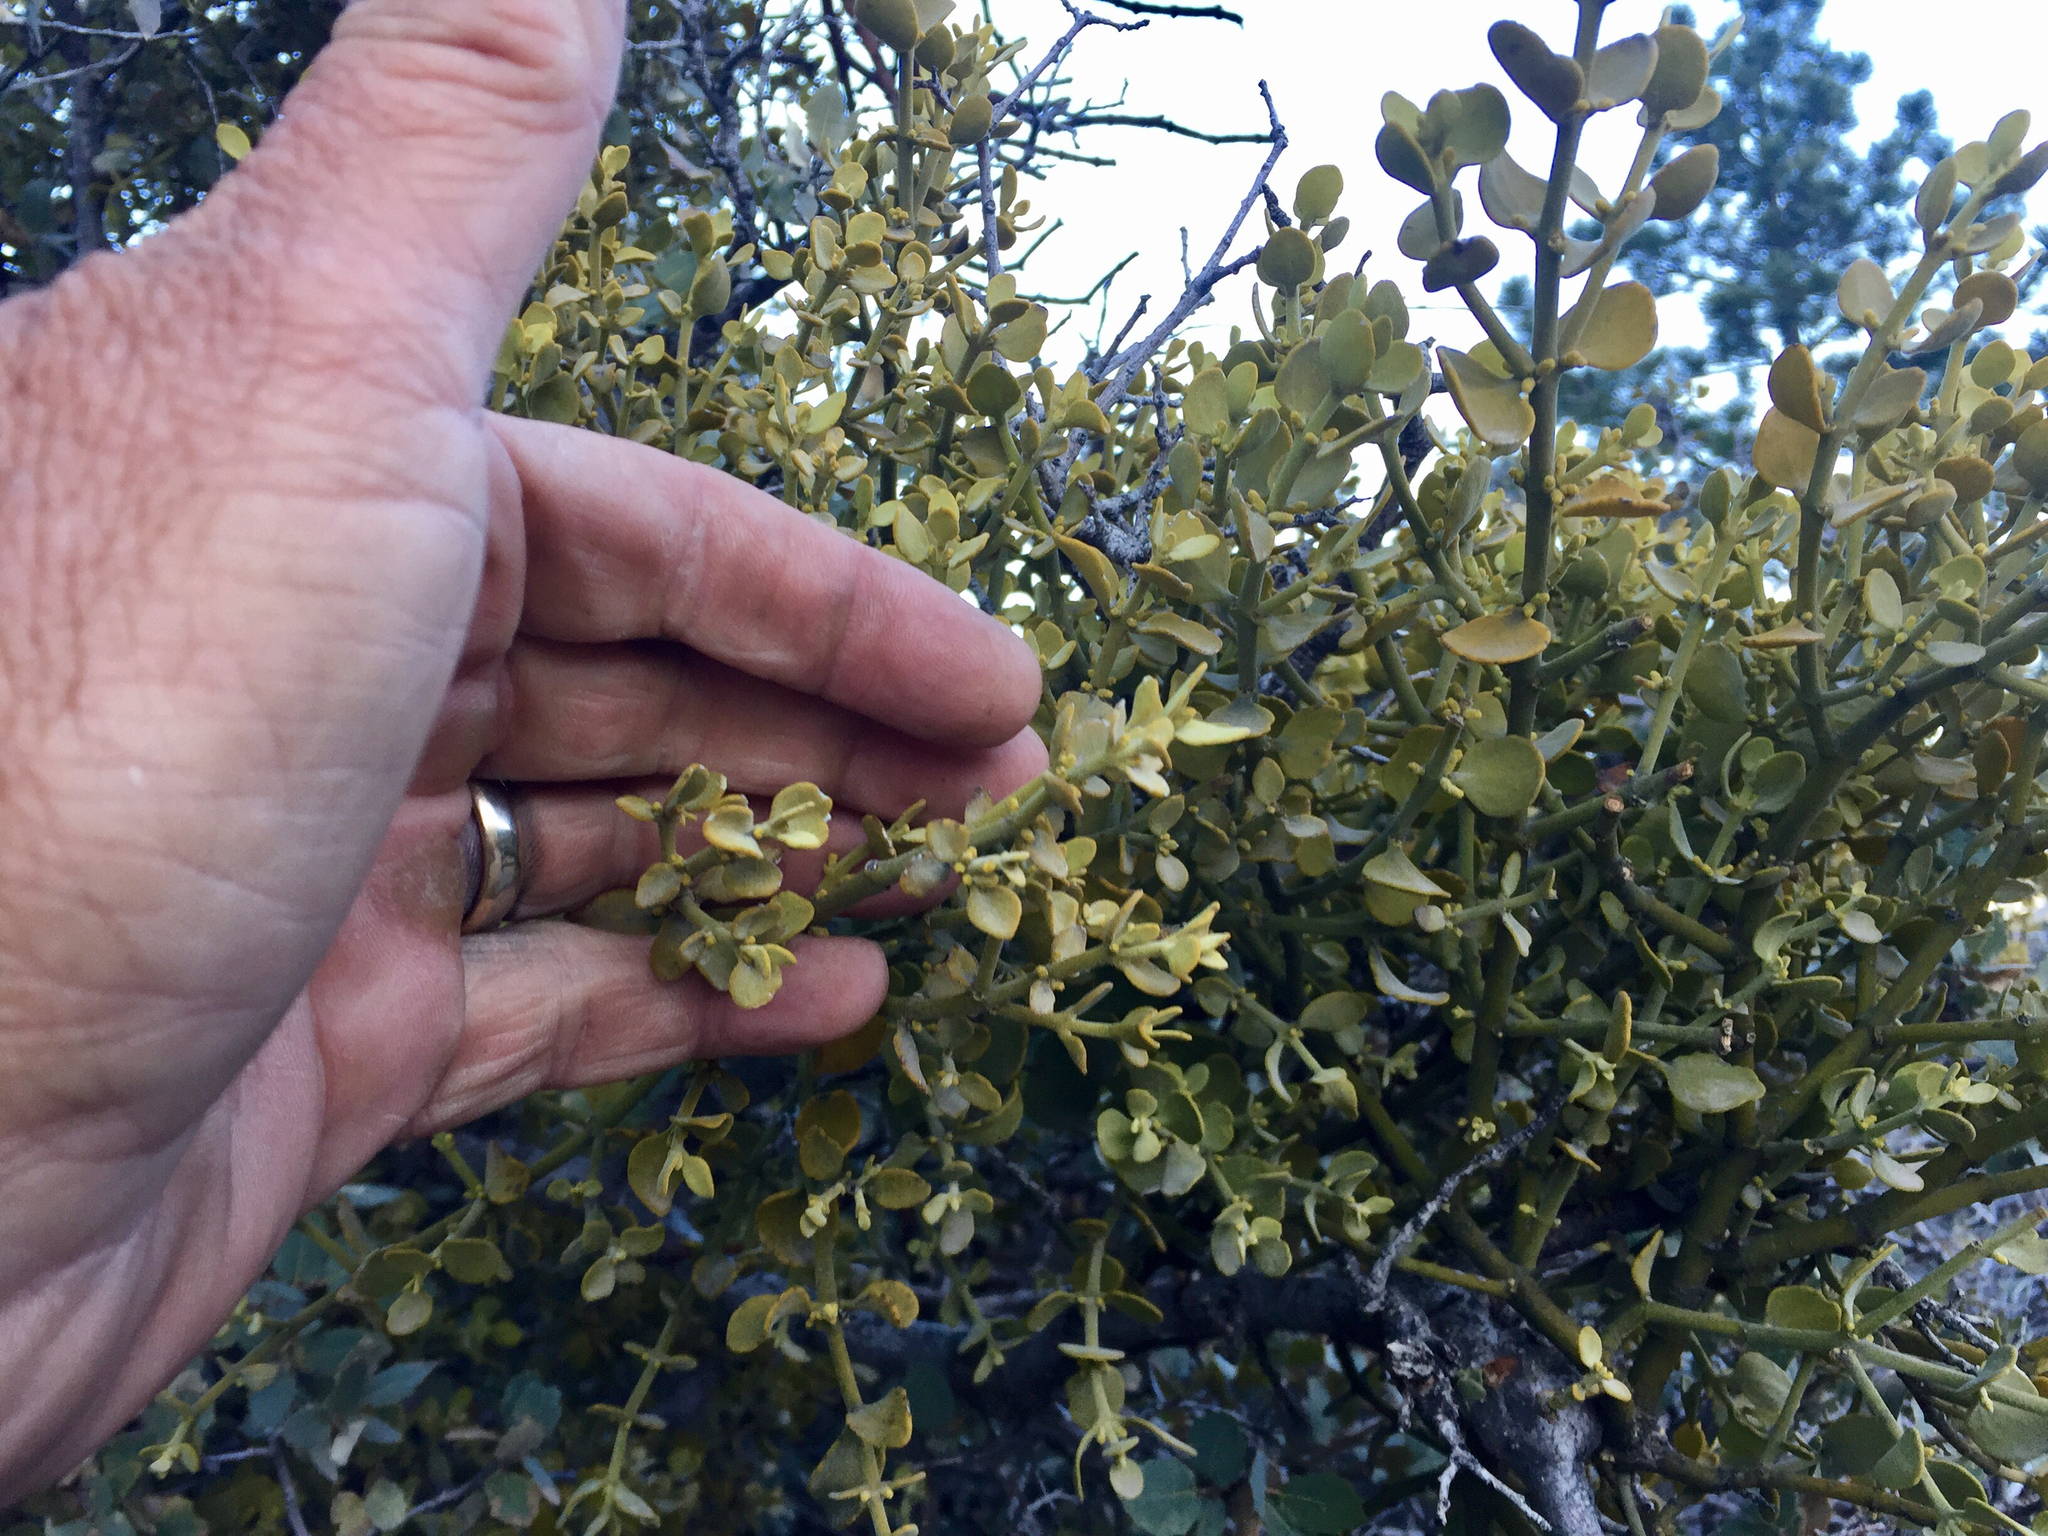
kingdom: Plantae
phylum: Tracheophyta
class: Magnoliopsida
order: Santalales
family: Viscaceae
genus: Phoradendron
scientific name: Phoradendron coryae
